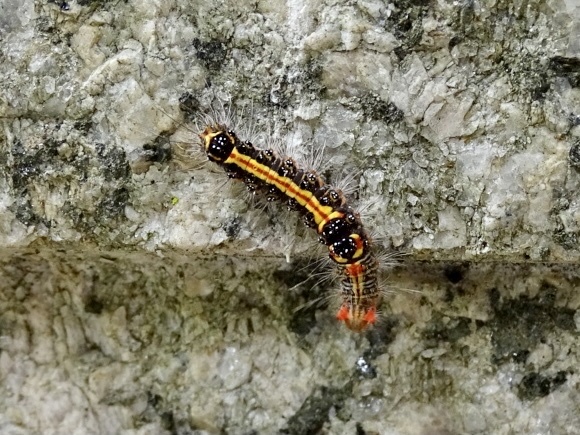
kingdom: Animalia
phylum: Arthropoda
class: Insecta
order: Lepidoptera
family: Erebidae
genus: Orvasca
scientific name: Orvasca subnotata
